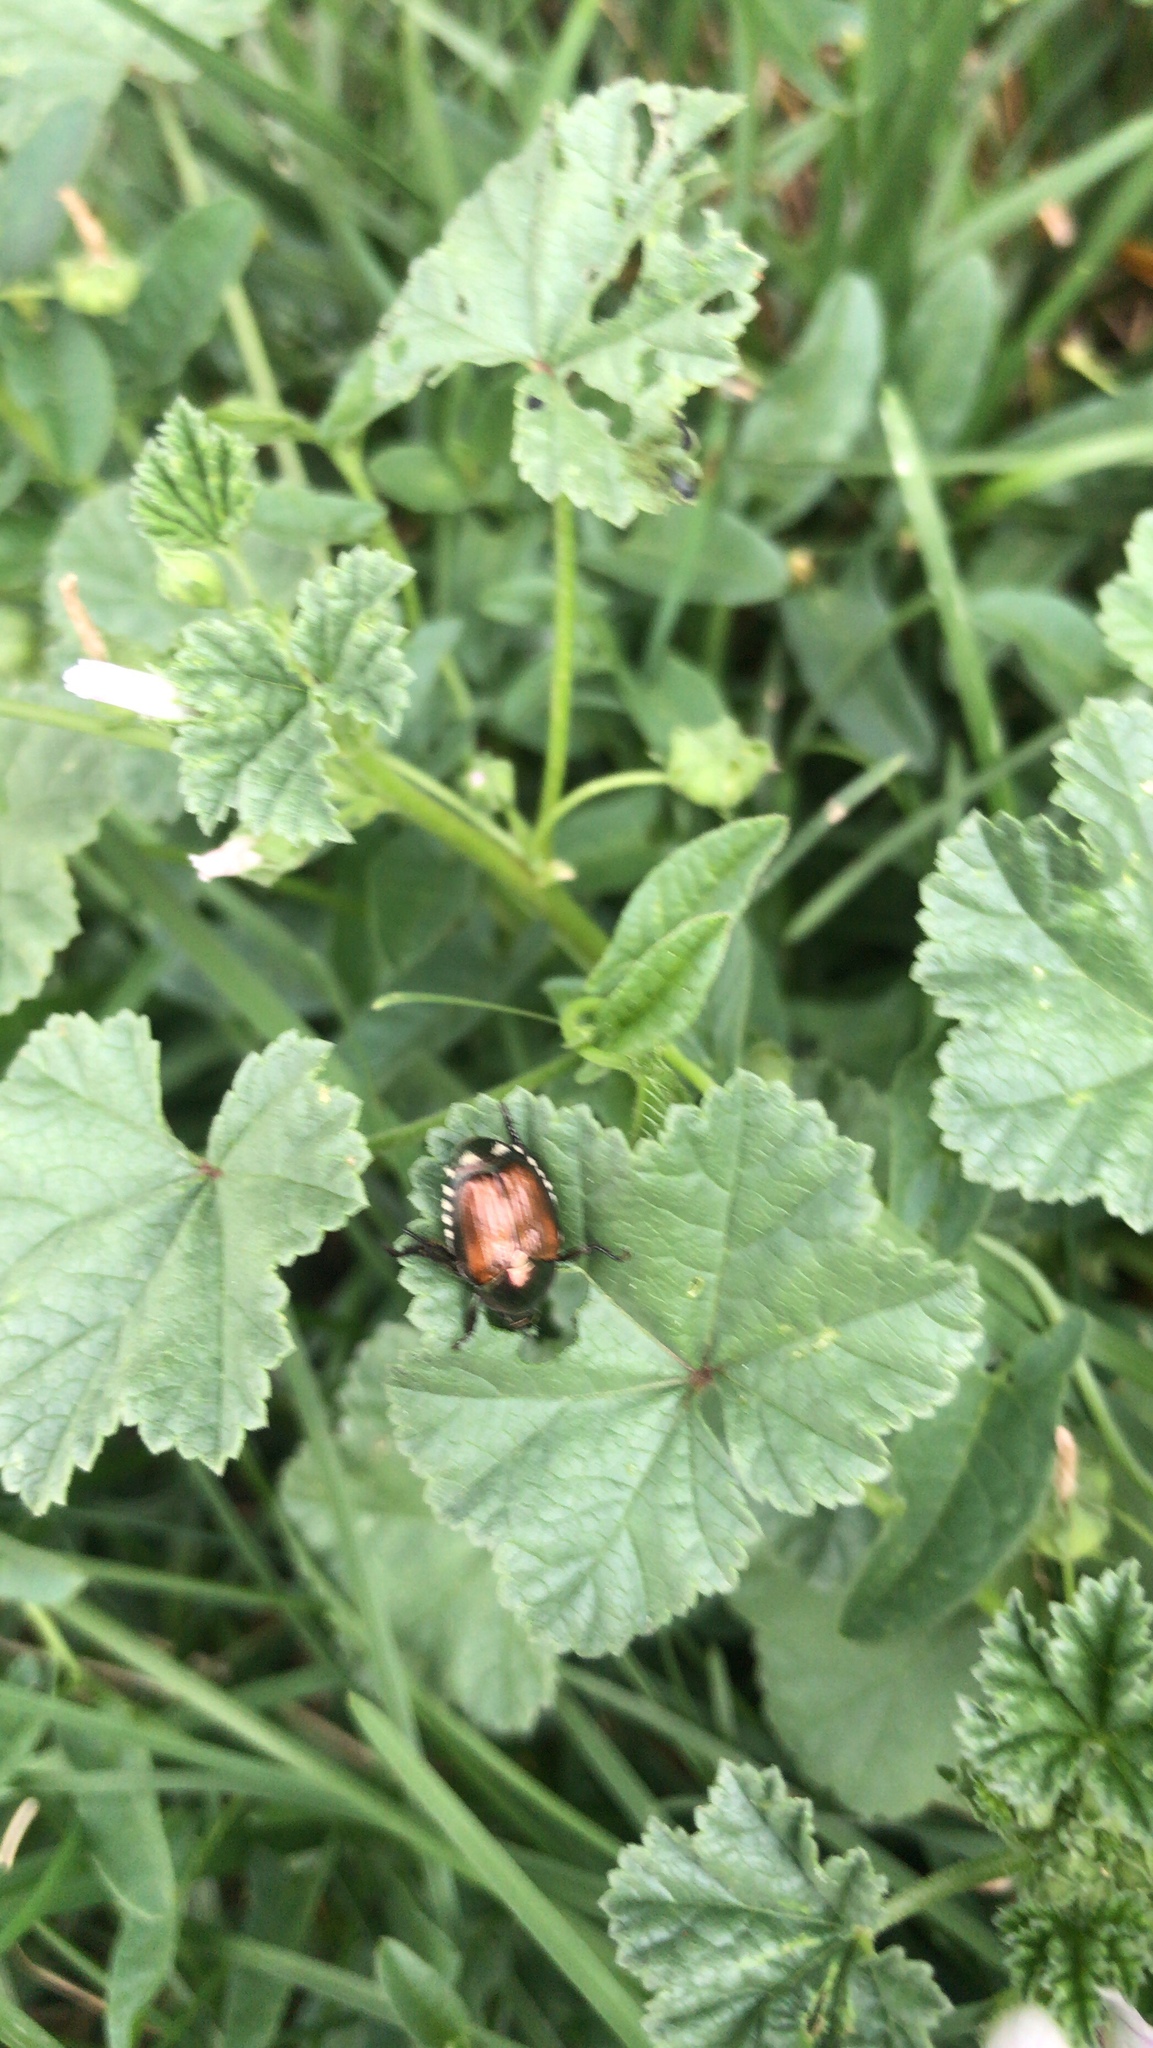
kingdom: Animalia
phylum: Arthropoda
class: Insecta
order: Coleoptera
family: Scarabaeidae
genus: Popillia
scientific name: Popillia japonica
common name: Japanese beetle
